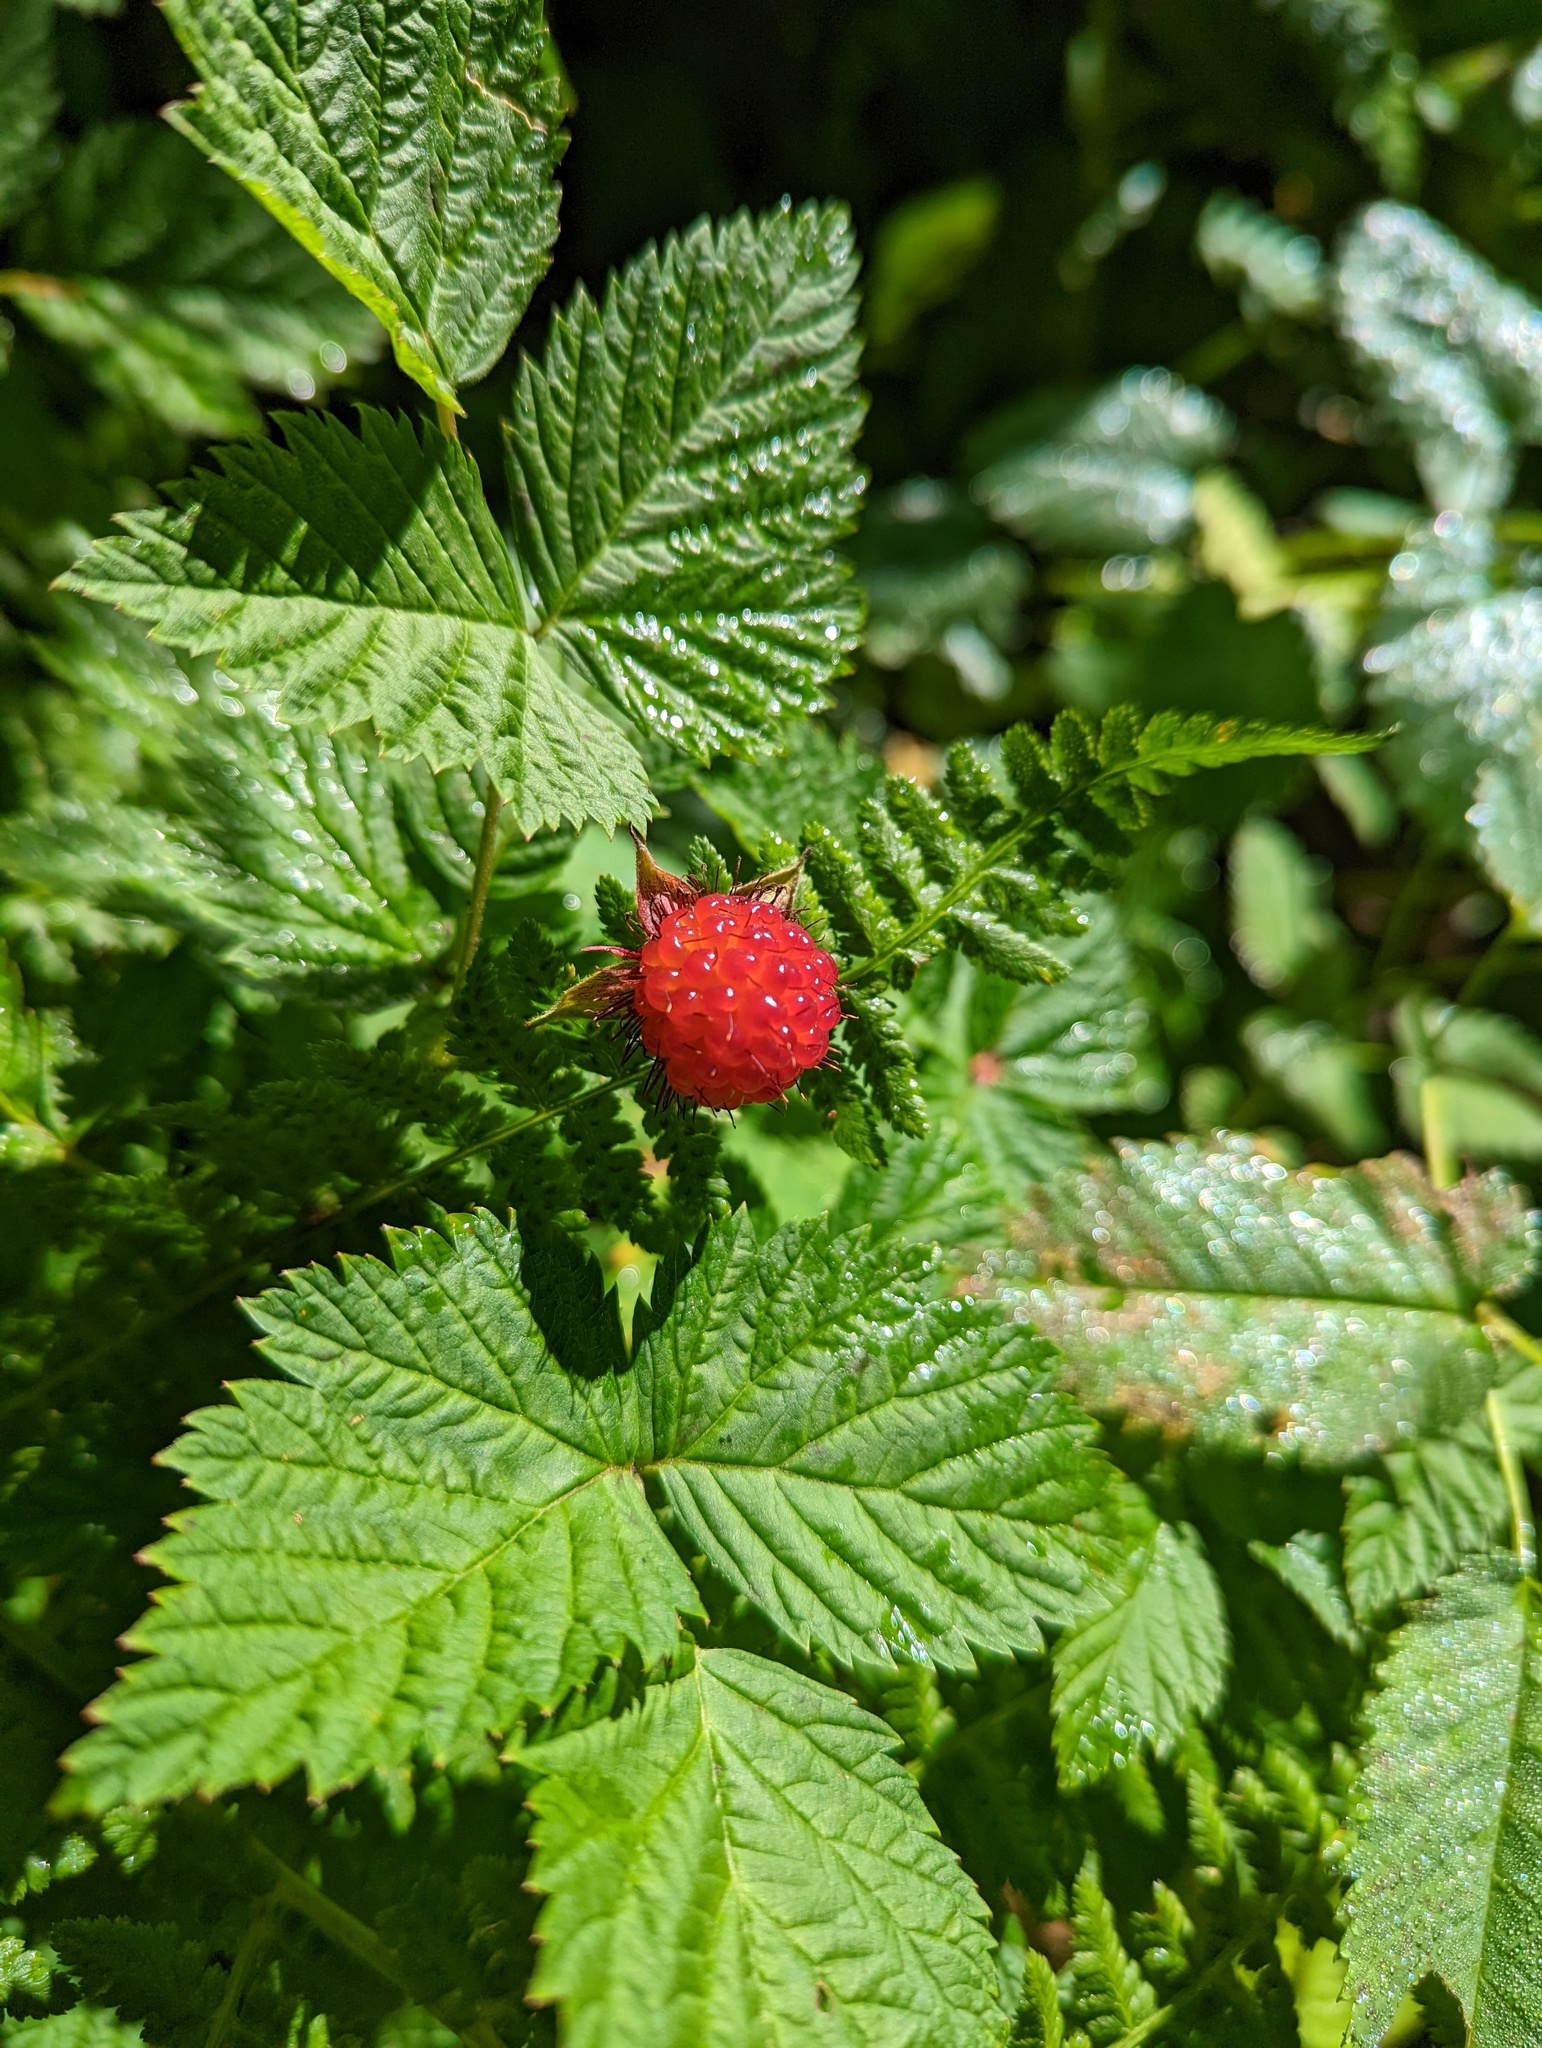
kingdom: Plantae
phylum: Tracheophyta
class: Magnoliopsida
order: Rosales
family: Rosaceae
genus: Rubus
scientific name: Rubus spectabilis
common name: Salmonberry
